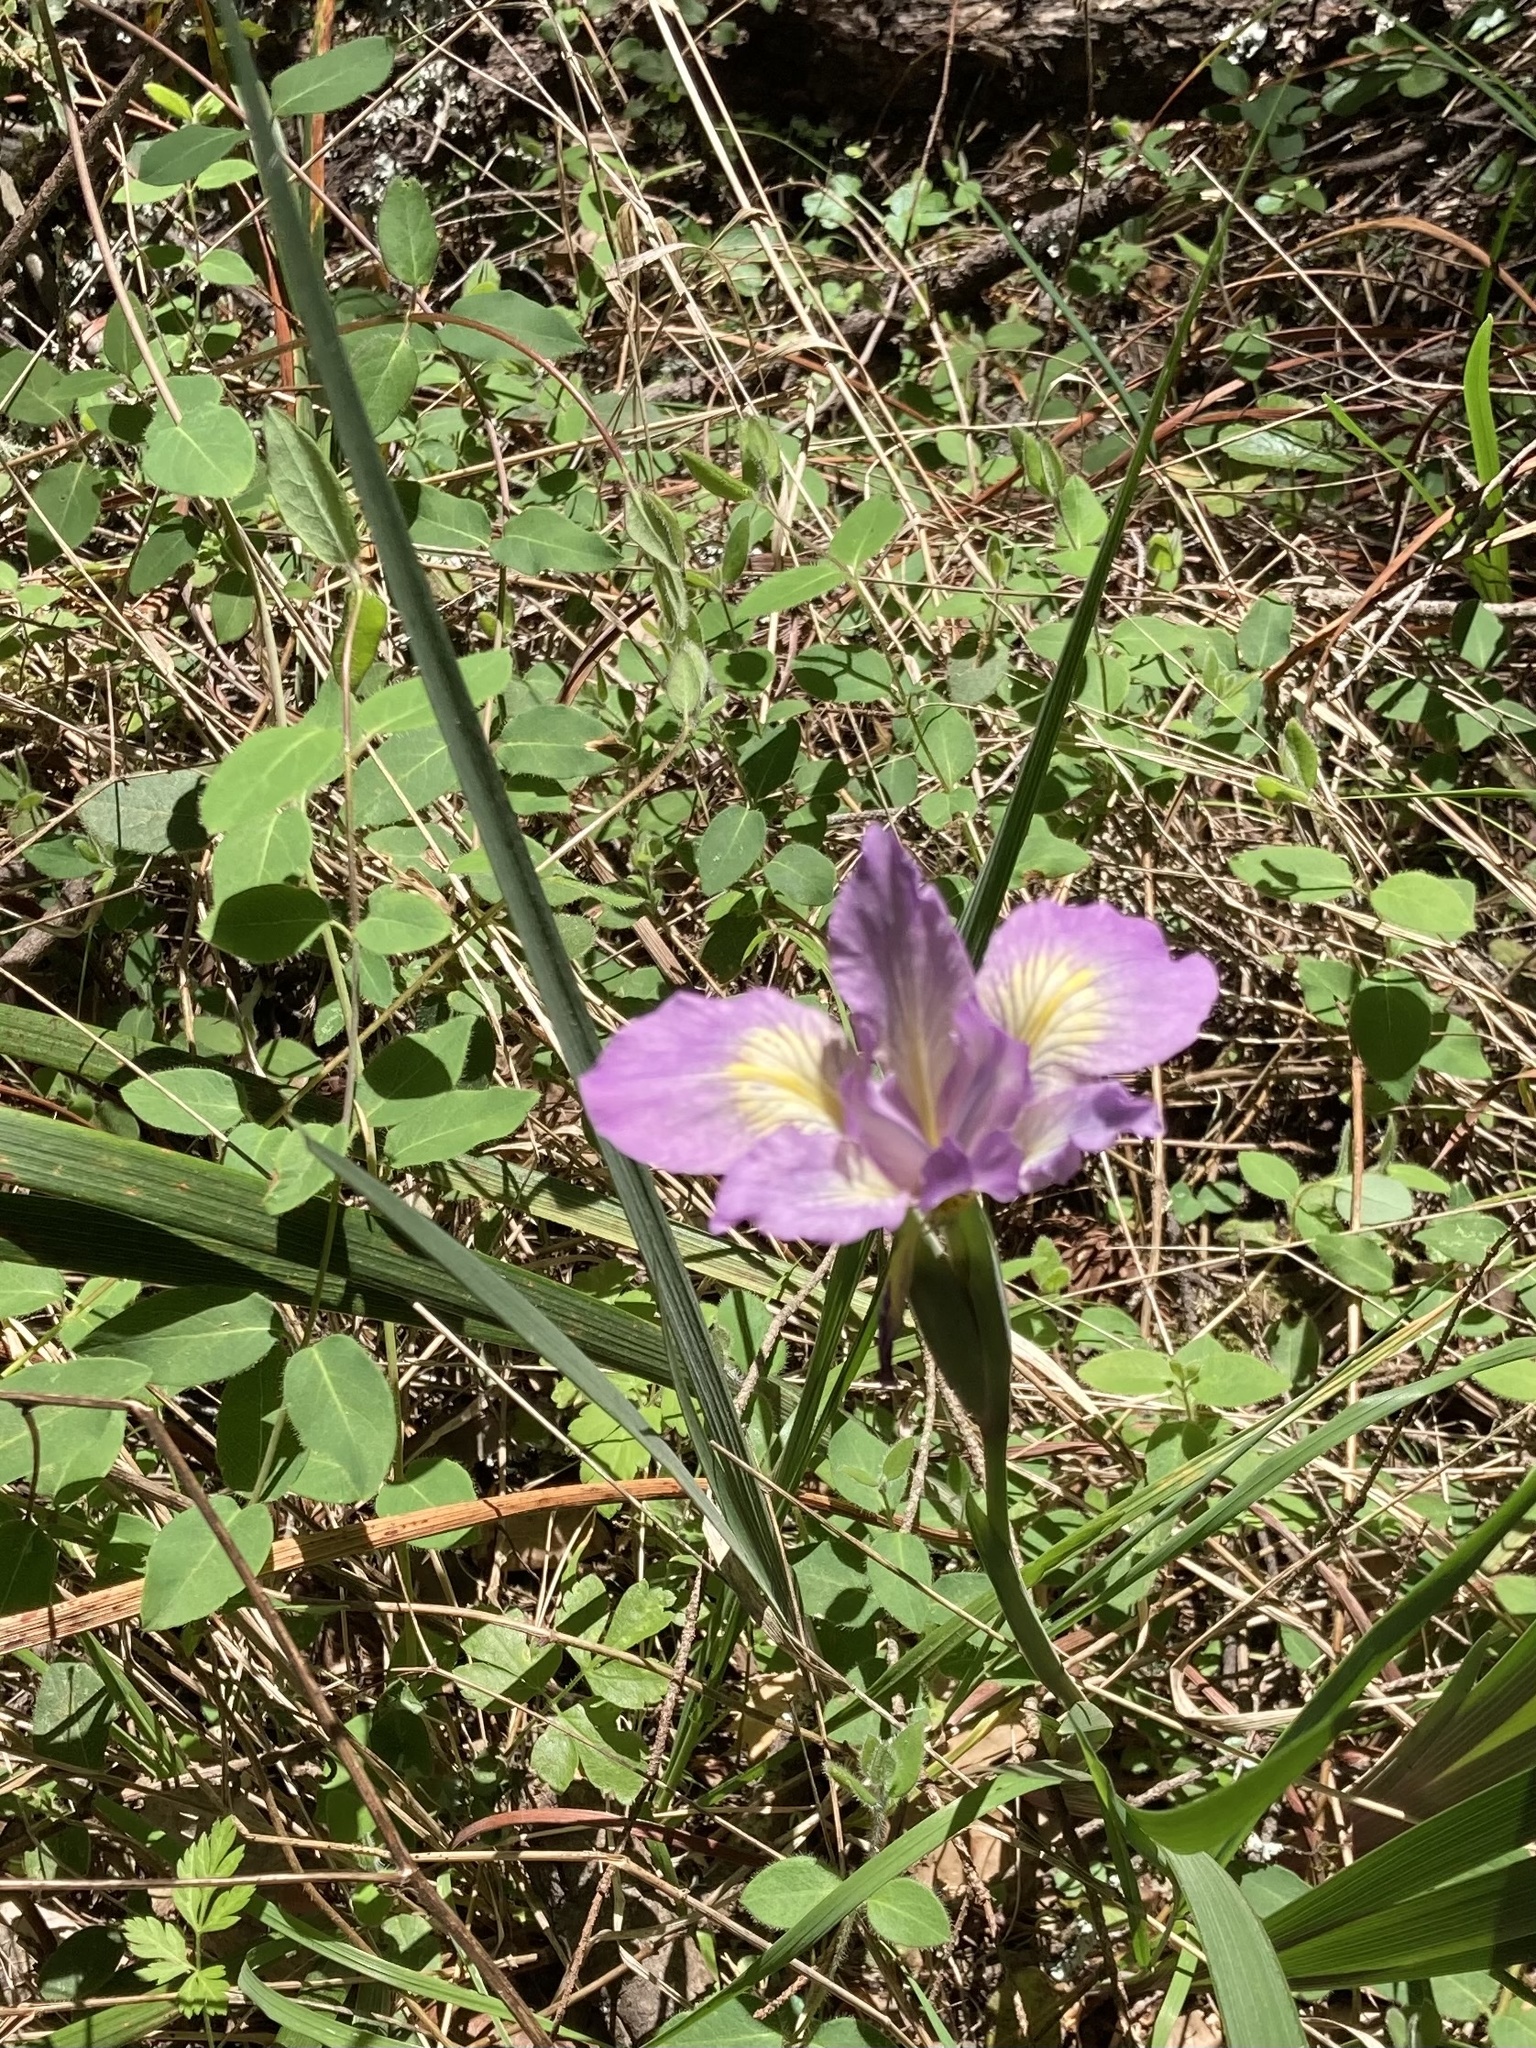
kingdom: Plantae
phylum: Tracheophyta
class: Liliopsida
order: Asparagales
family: Iridaceae
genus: Iris
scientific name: Iris douglasiana
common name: Marin iris
